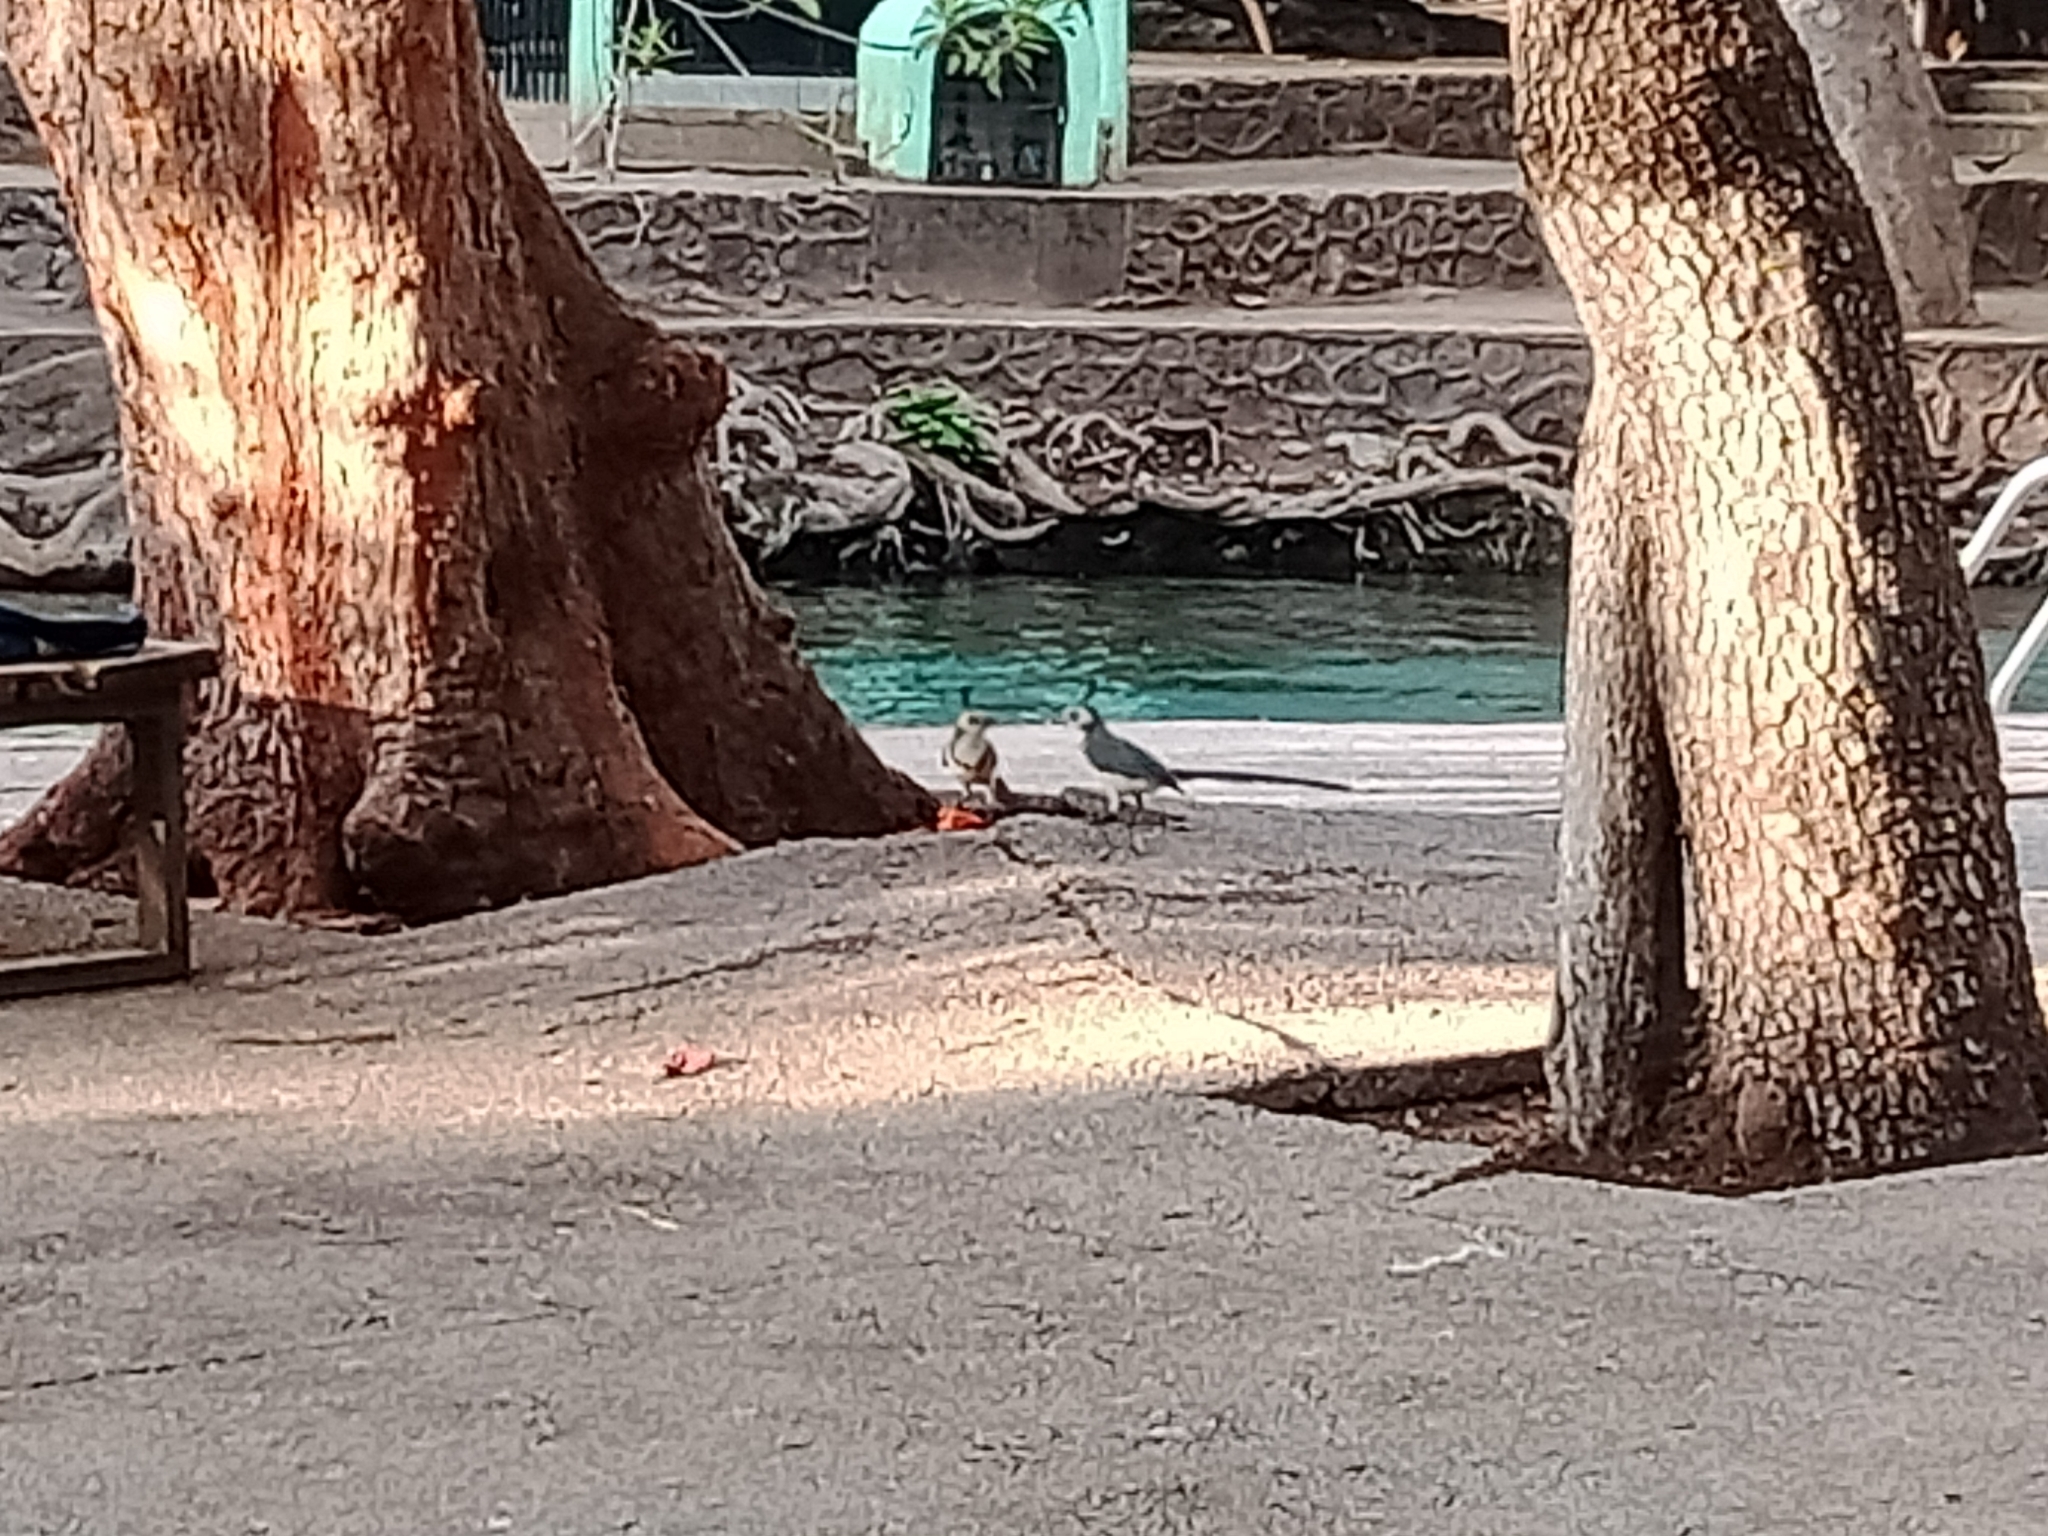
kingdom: Animalia
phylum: Chordata
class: Aves
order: Passeriformes
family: Corvidae
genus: Calocitta
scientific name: Calocitta formosa
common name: White-throated magpie-jay
